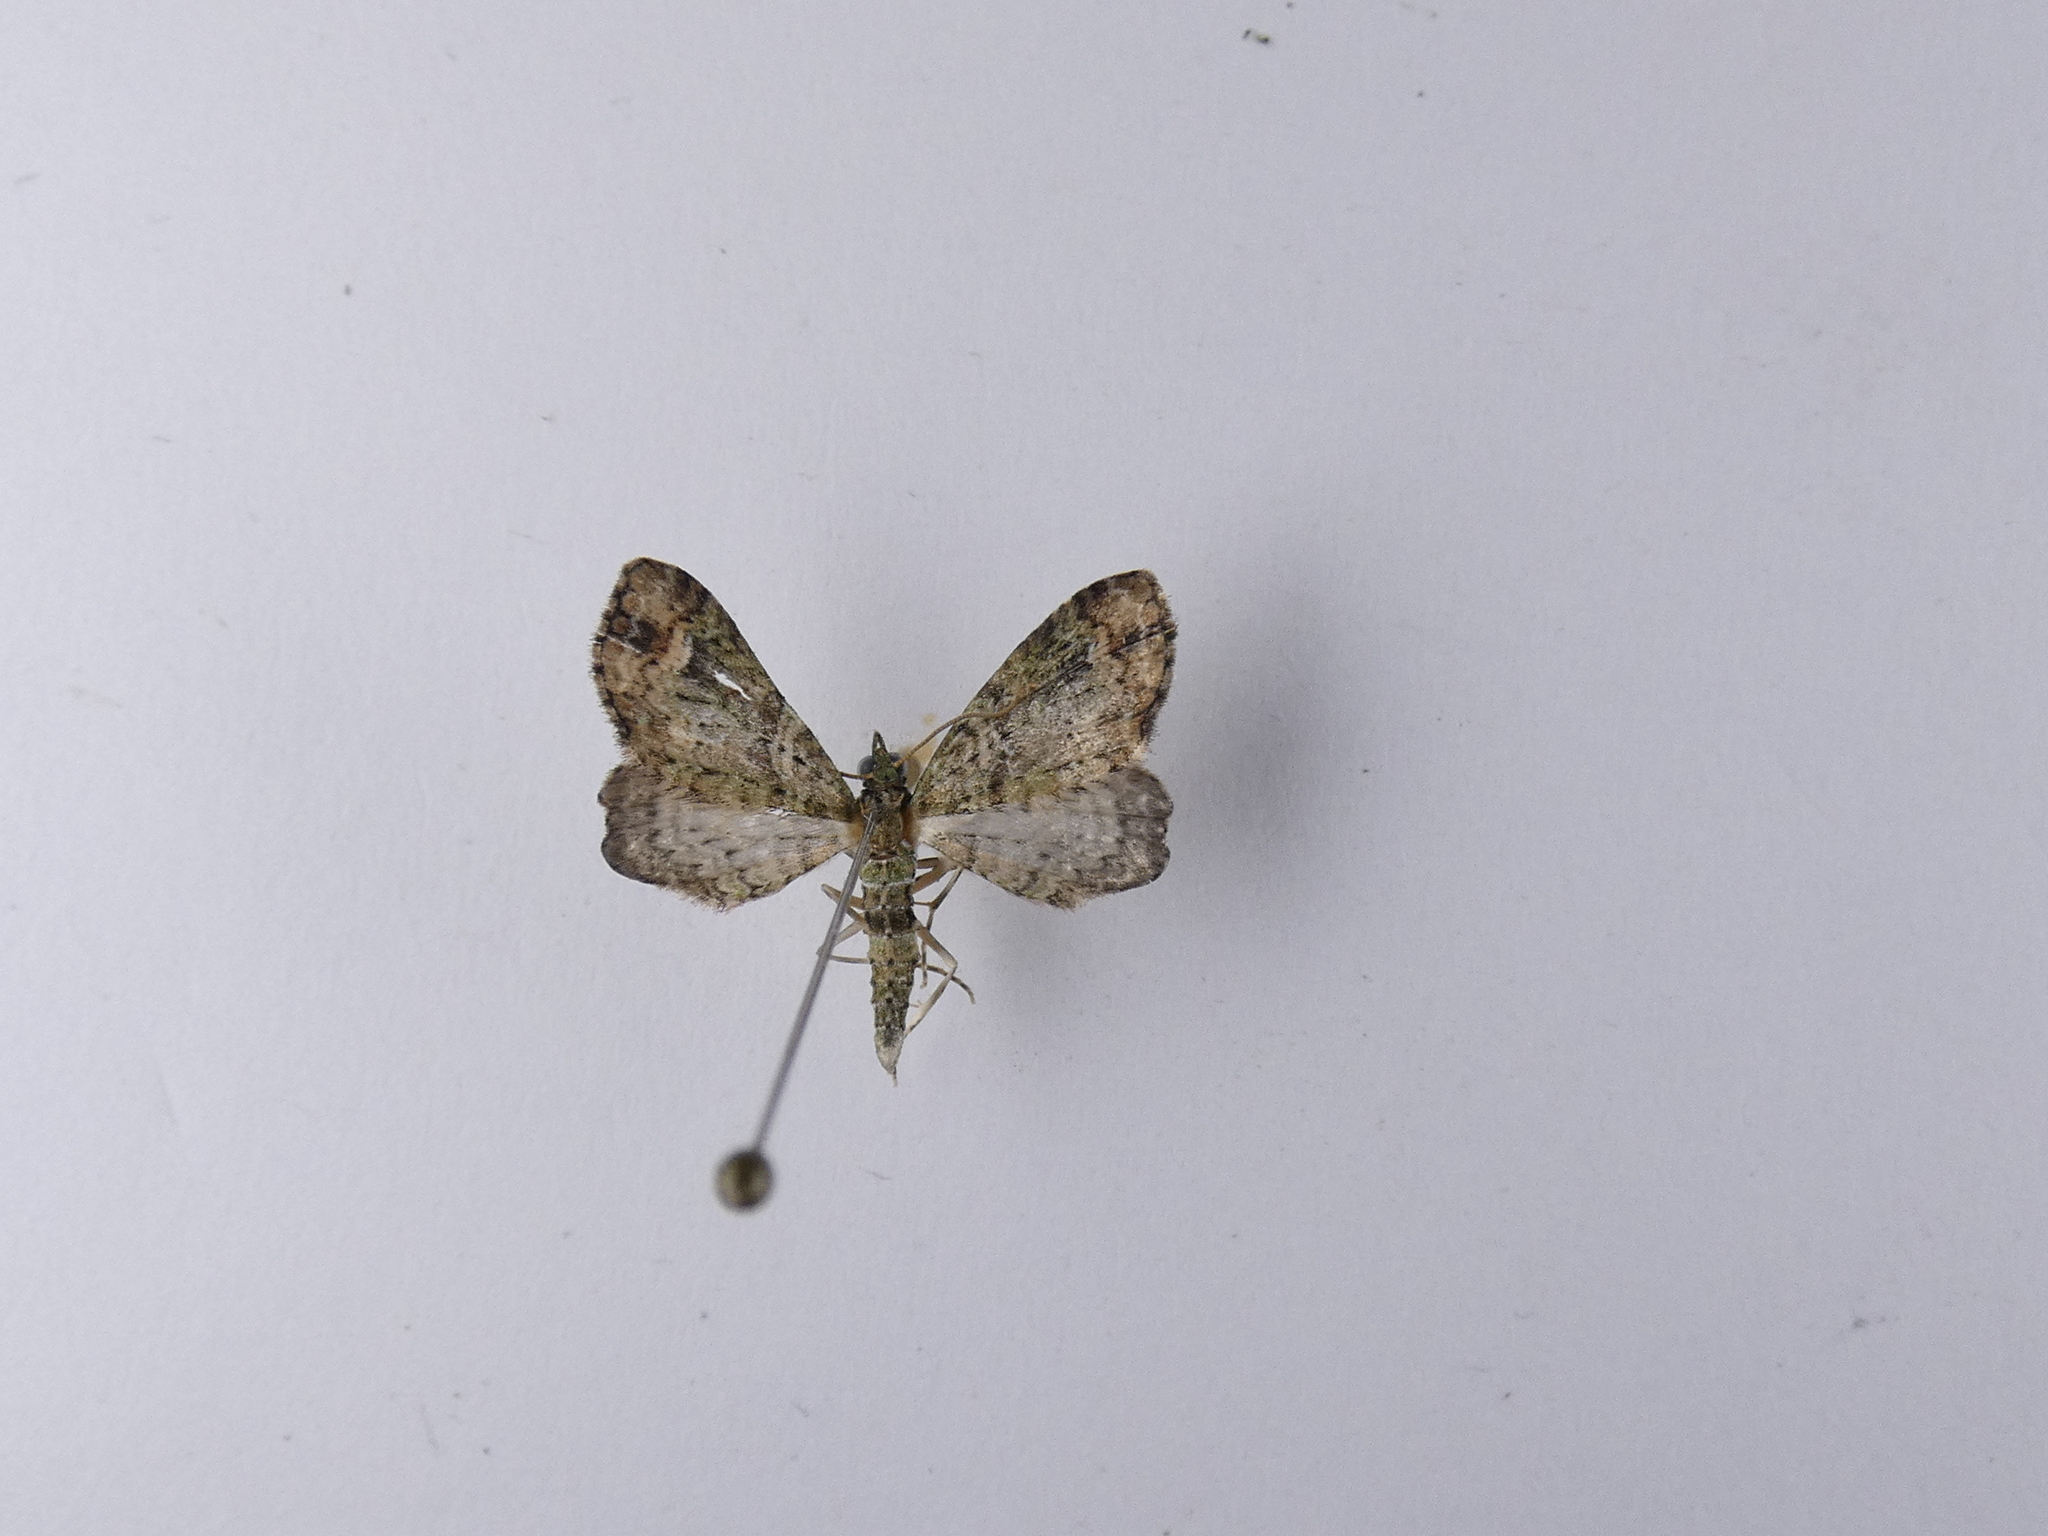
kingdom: Animalia
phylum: Arthropoda
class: Insecta
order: Lepidoptera
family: Geometridae
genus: Idaea
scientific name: Idaea mutanda
